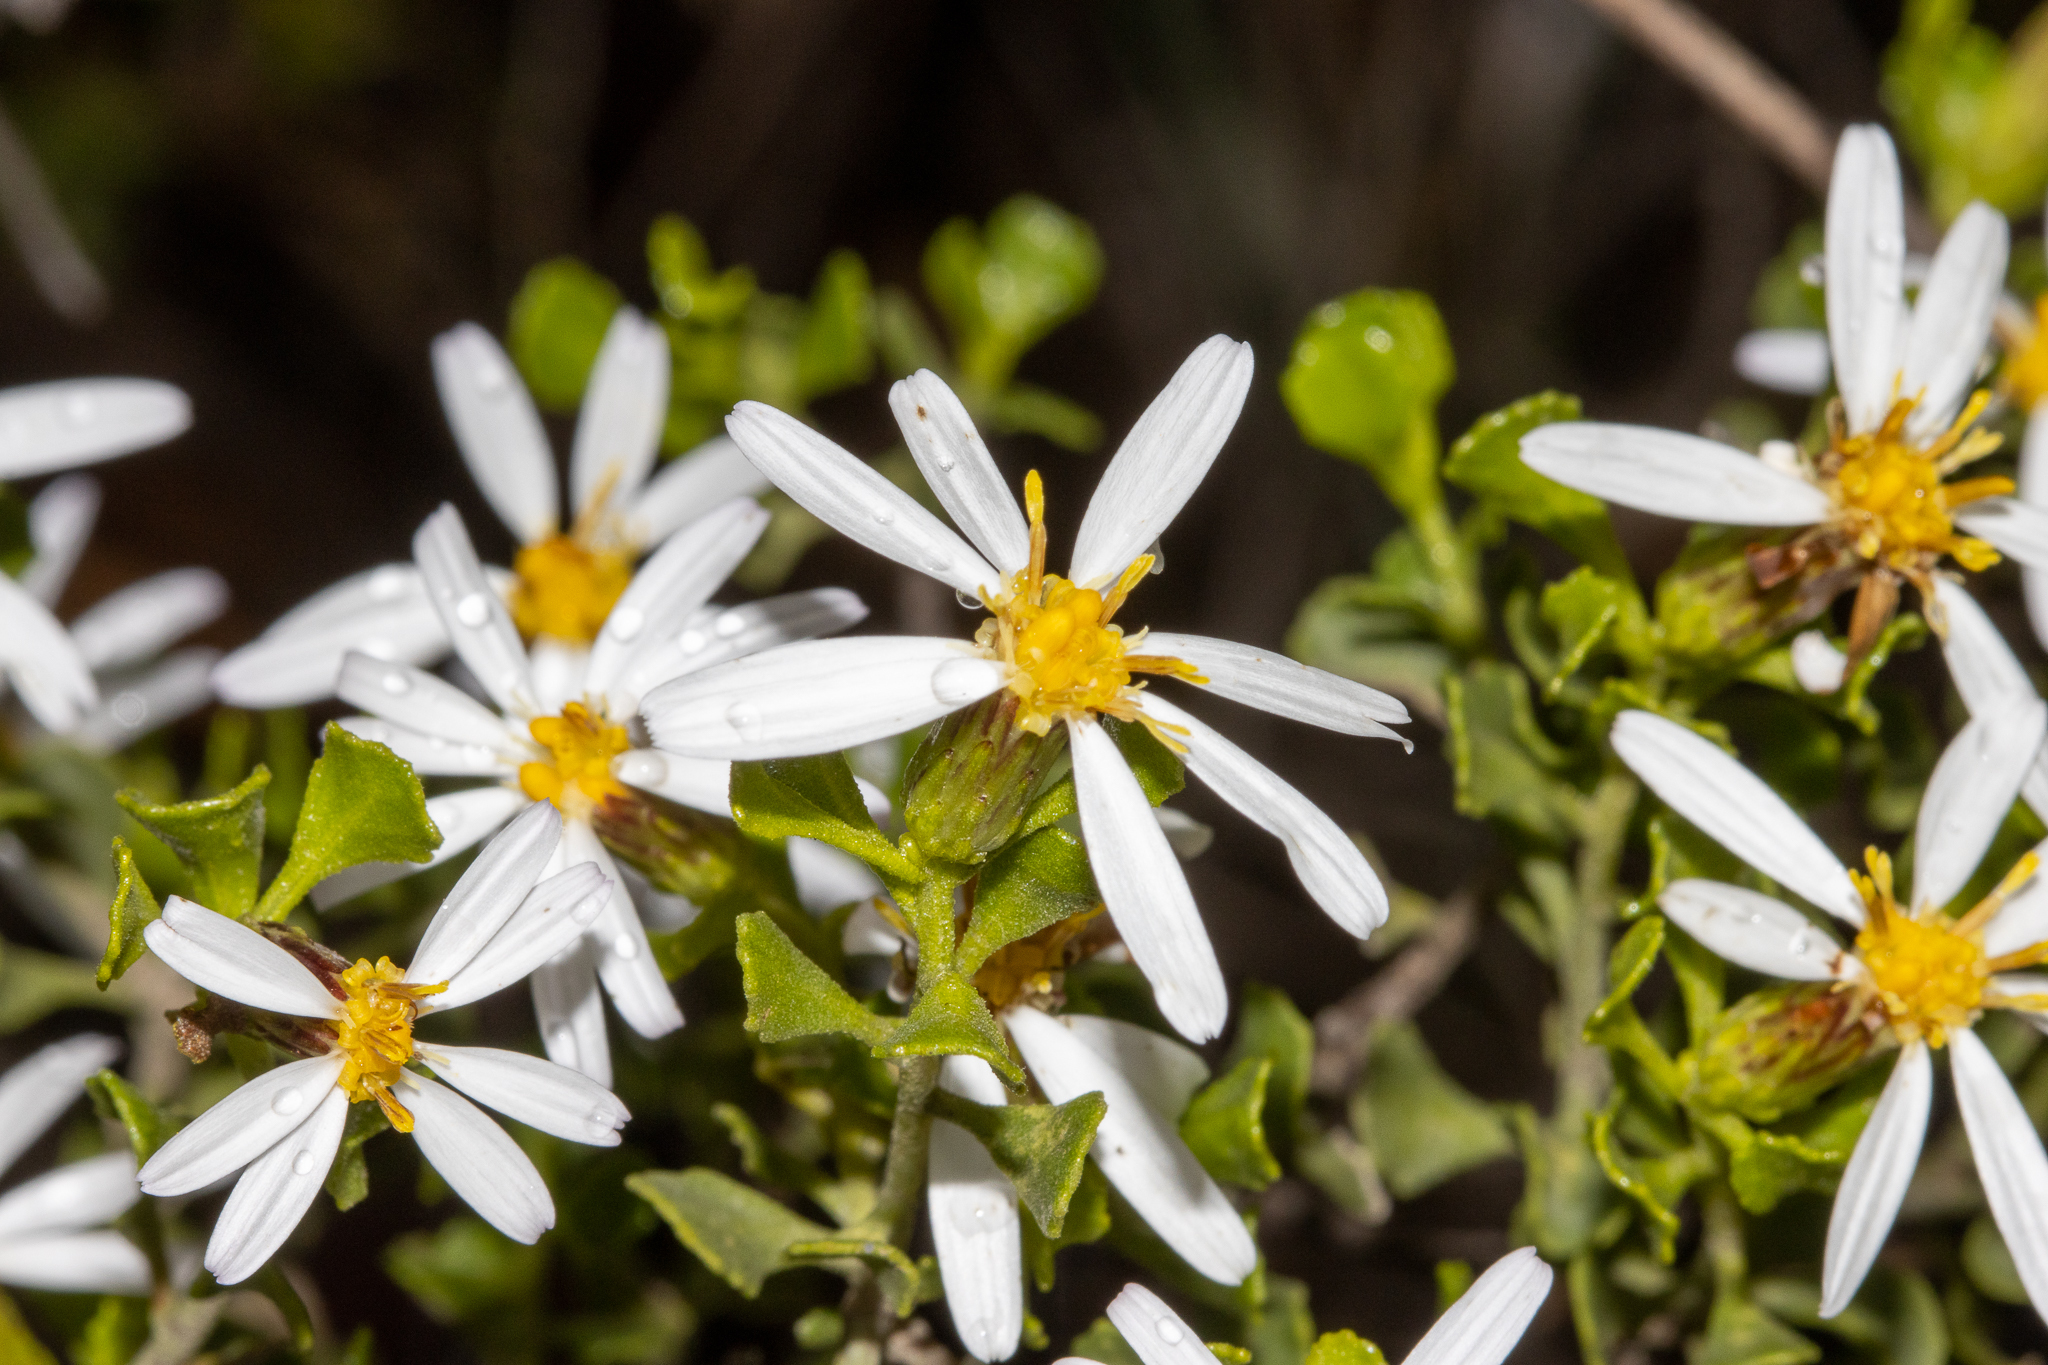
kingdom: Plantae
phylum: Tracheophyta
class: Magnoliopsida
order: Asterales
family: Asteraceae
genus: Walsholaria
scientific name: Walsholaria muelleri
